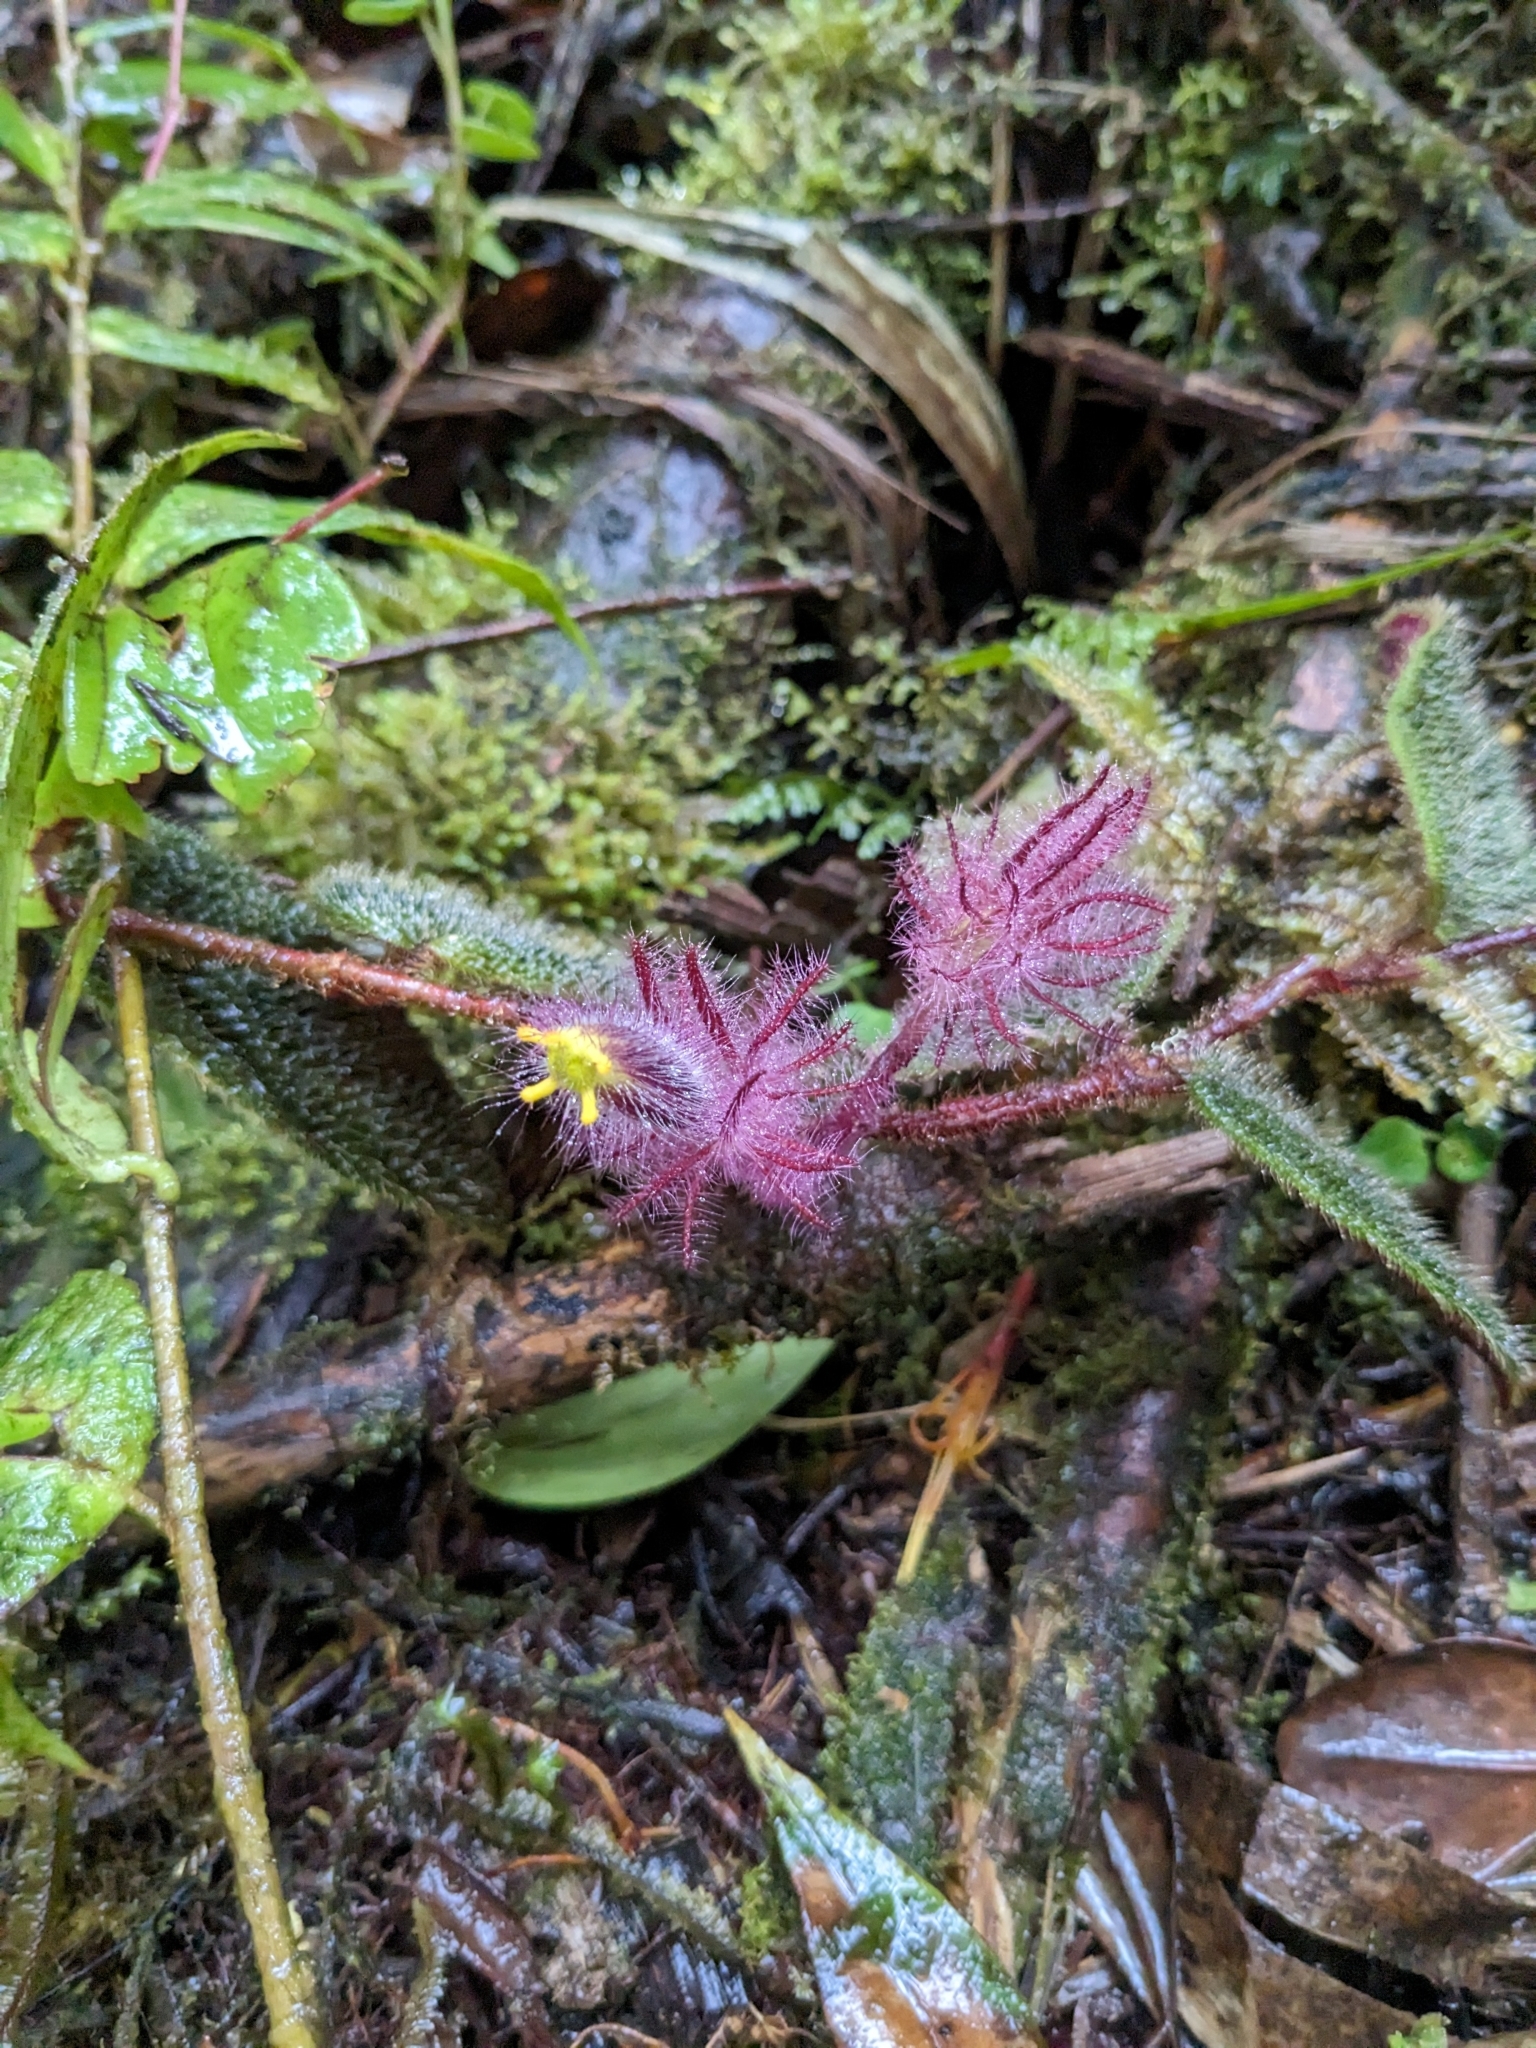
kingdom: Plantae
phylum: Tracheophyta
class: Magnoliopsida
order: Lamiales
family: Gesneriaceae
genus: Columnea
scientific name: Columnea minor
